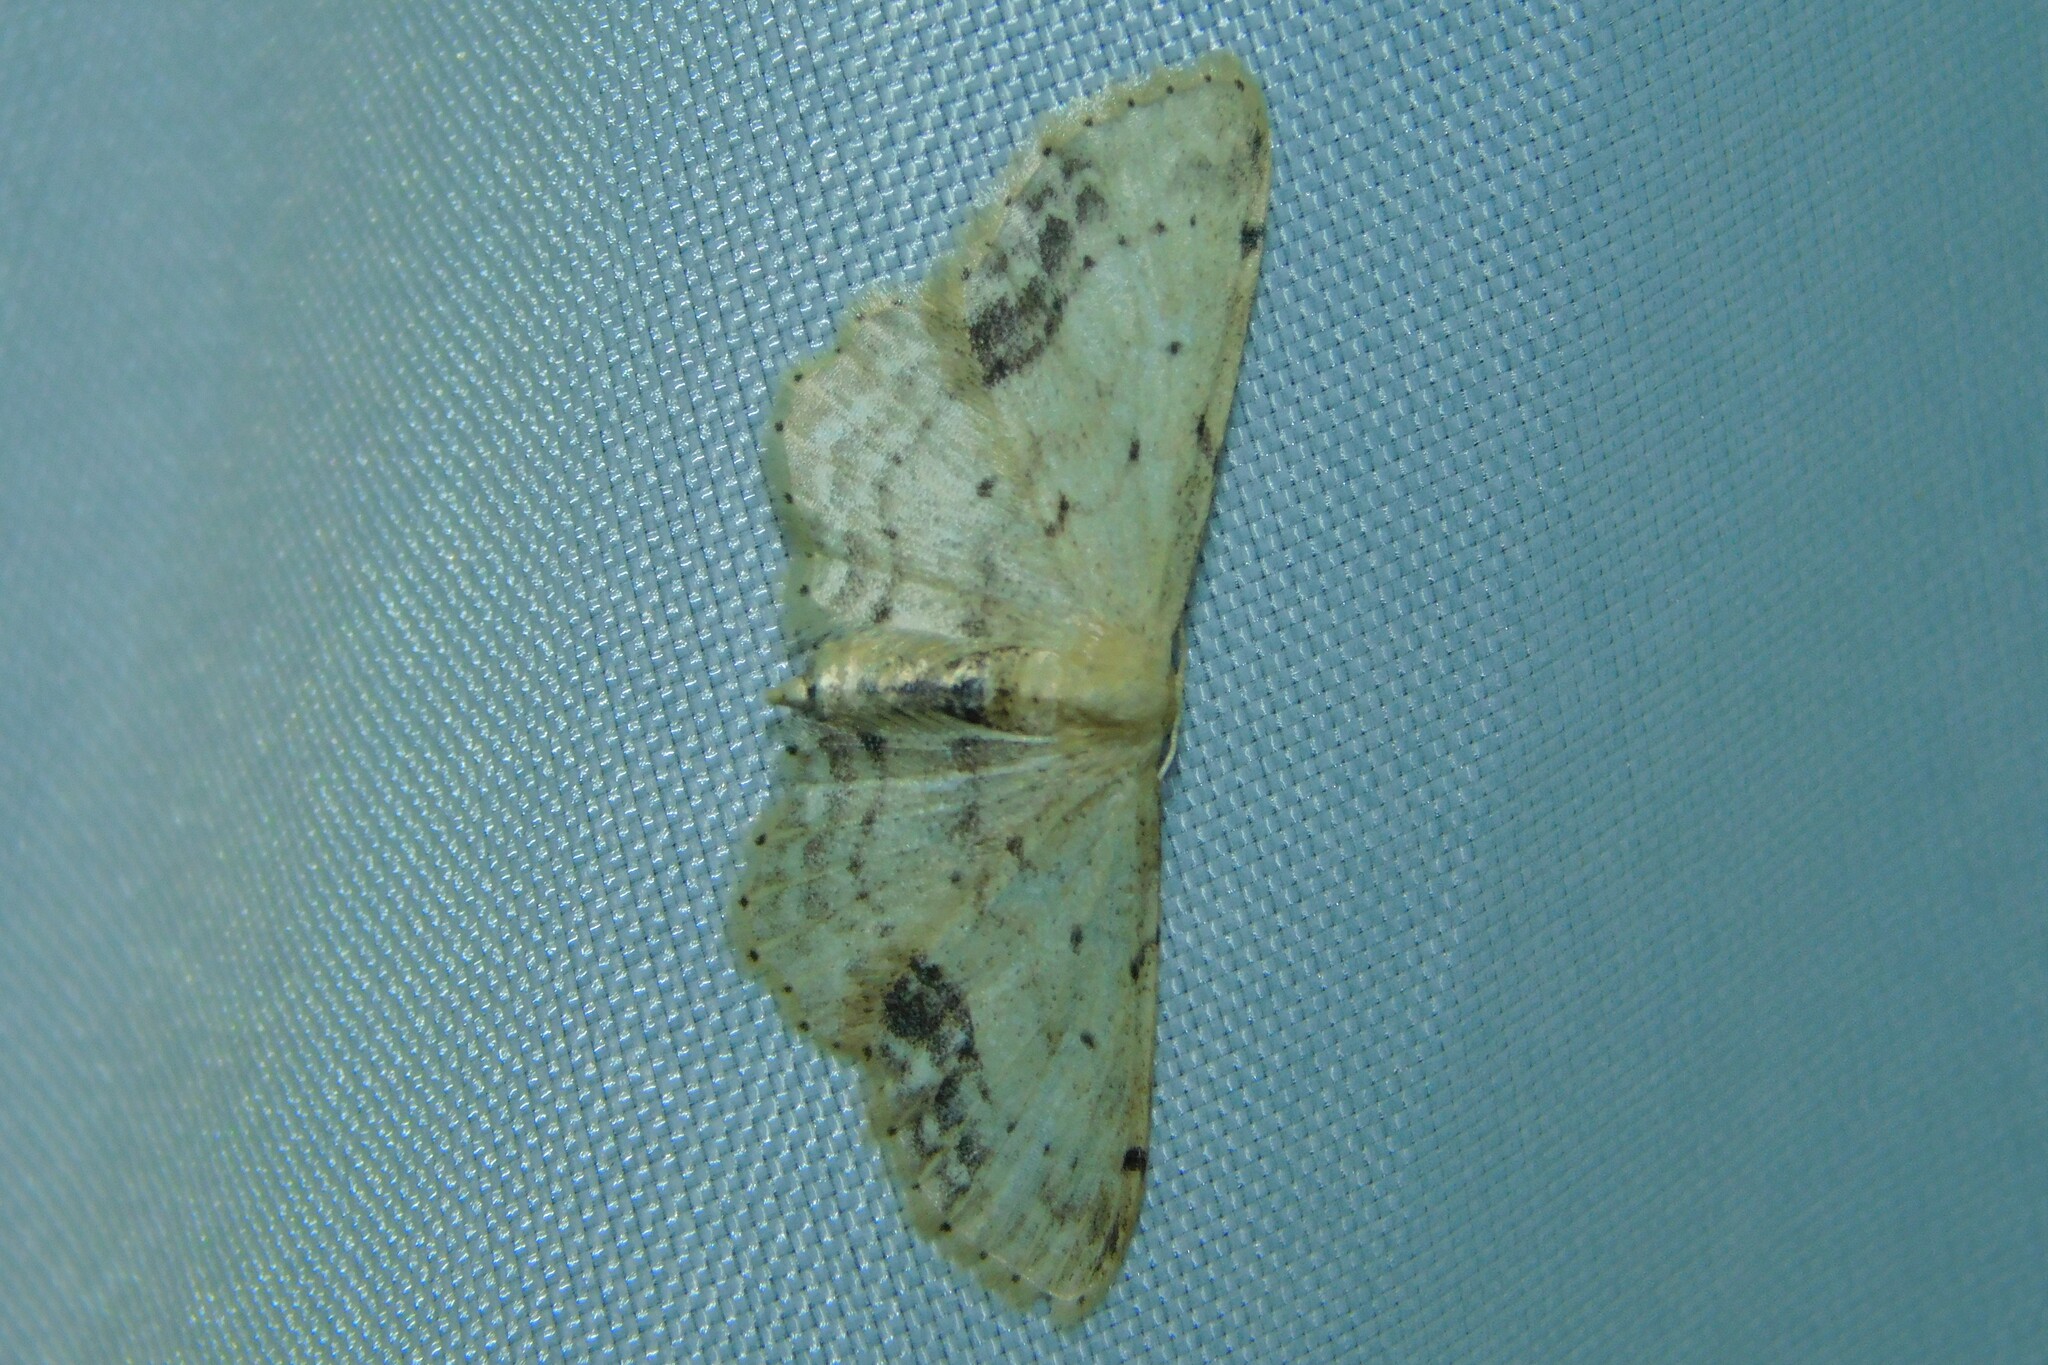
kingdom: Animalia
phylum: Arthropoda
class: Insecta
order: Lepidoptera
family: Geometridae
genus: Idaea
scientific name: Idaea dimidiata
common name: Single-dotted wave
